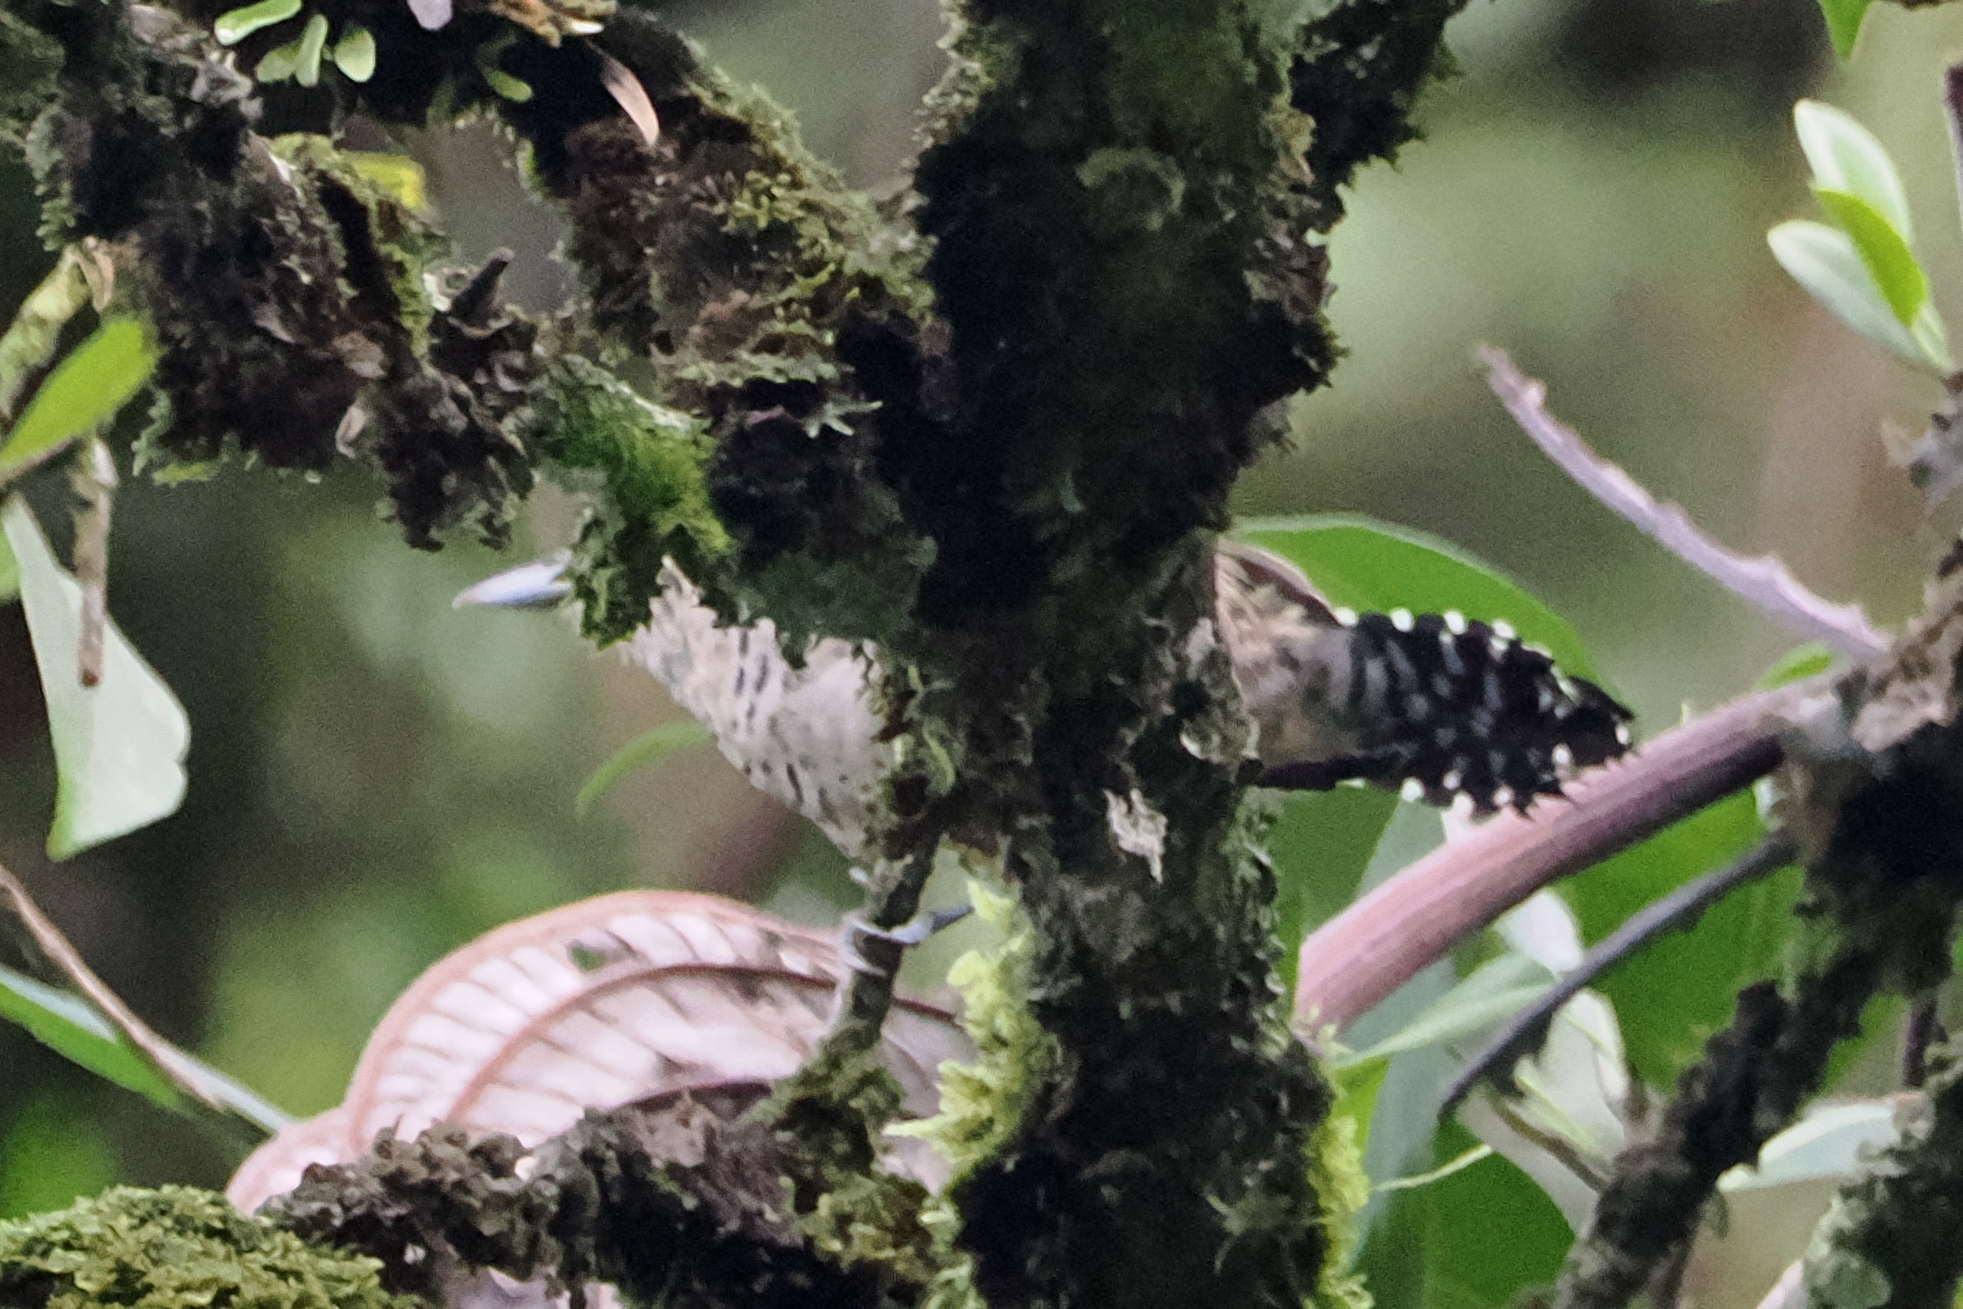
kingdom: Animalia
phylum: Chordata
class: Aves
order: Passeriformes
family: Thamnophilidae
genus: Thamnophilus
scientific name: Thamnophilus doliatus
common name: Barred antshrike
